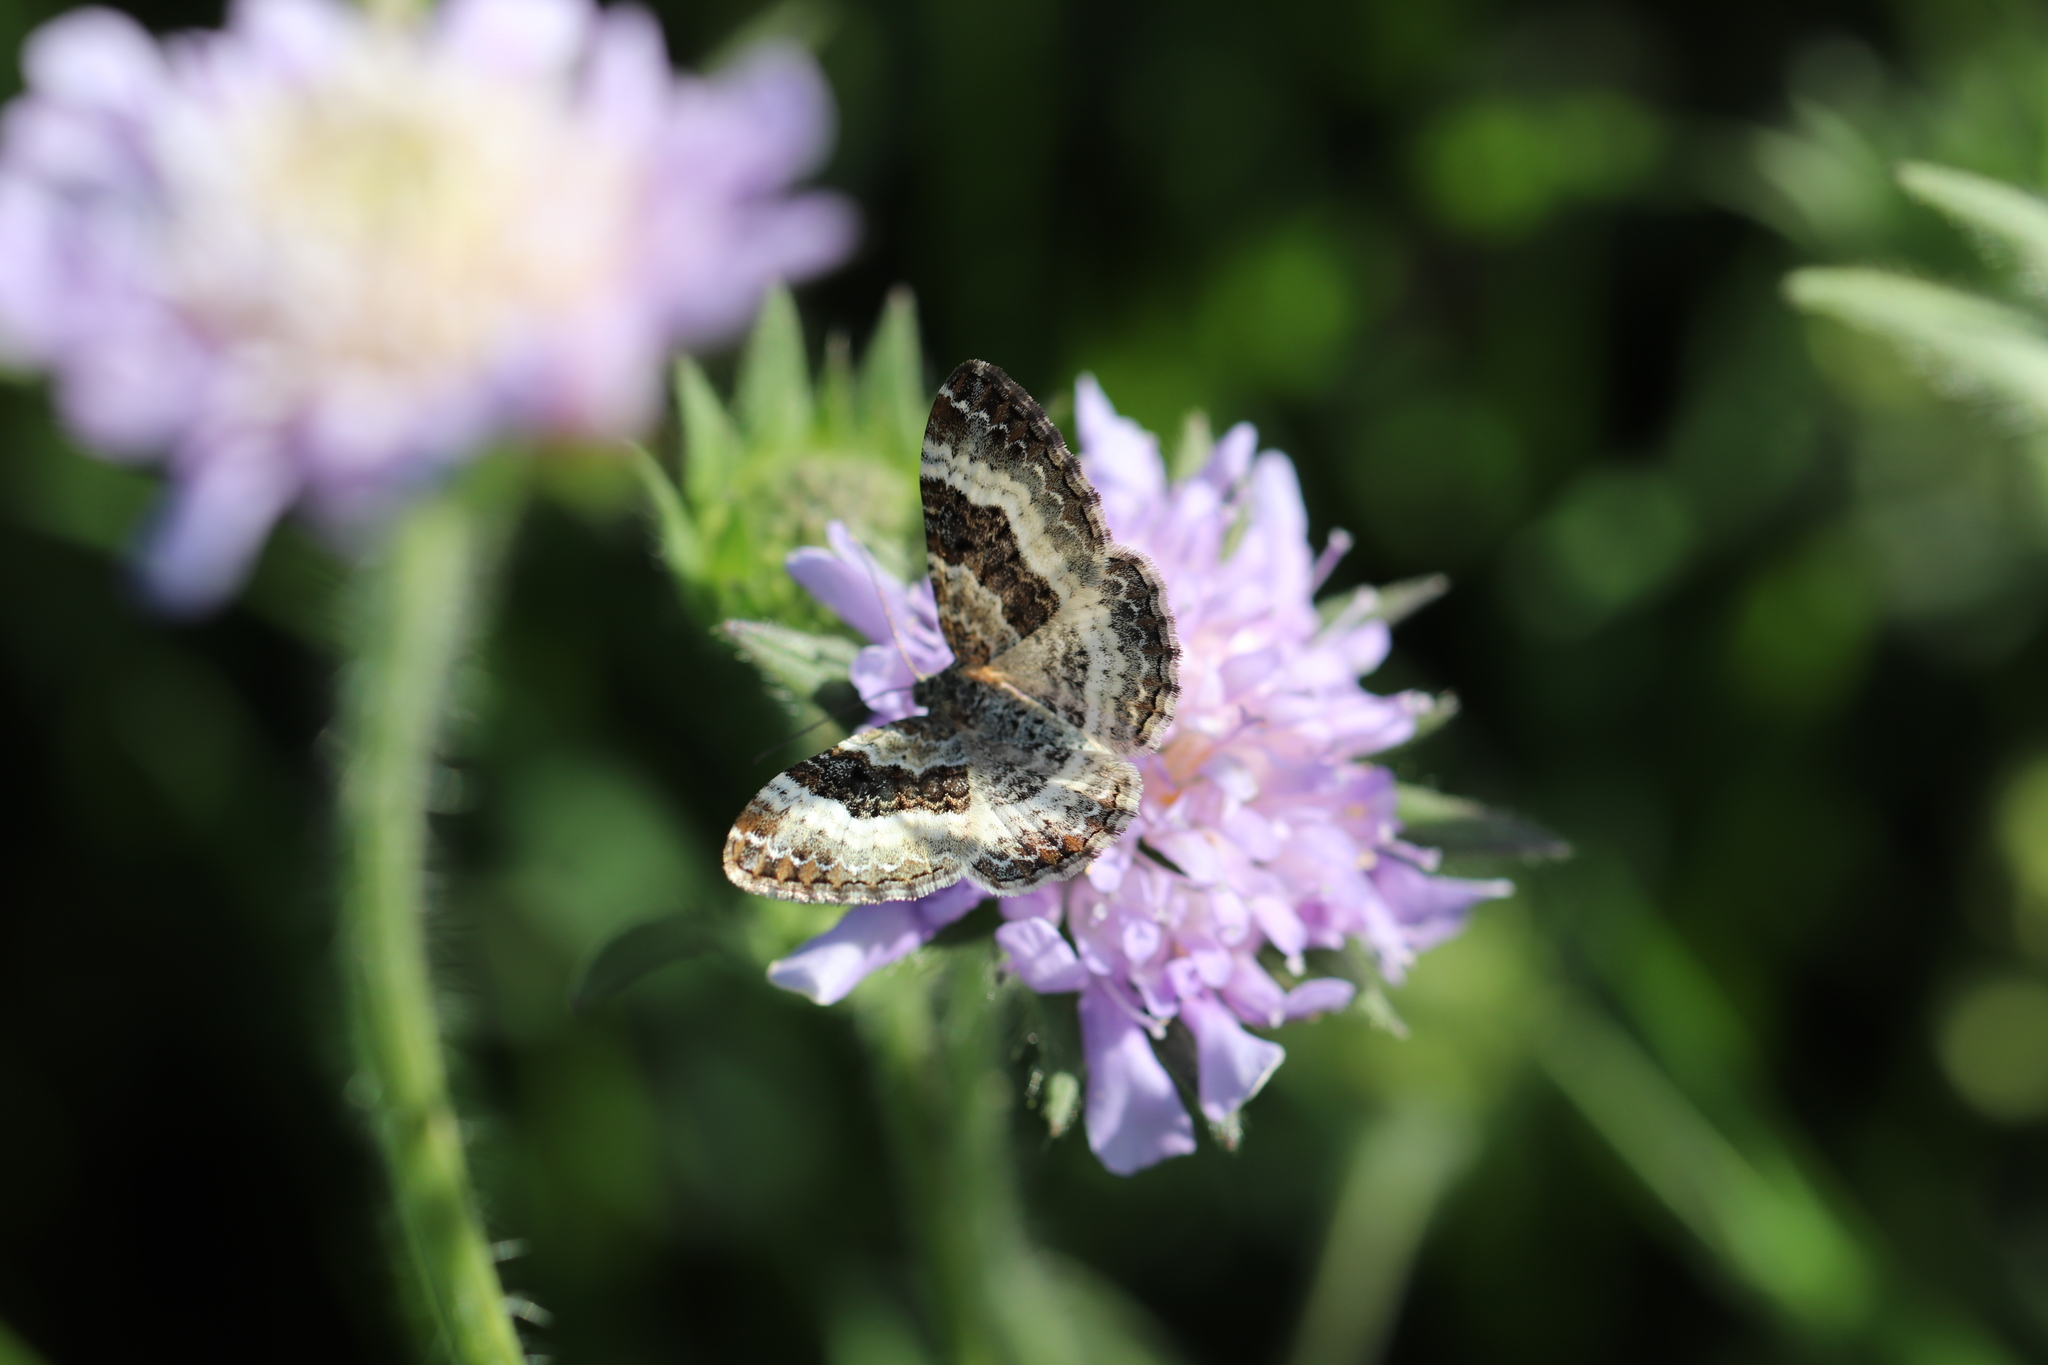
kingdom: Animalia
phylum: Arthropoda
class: Insecta
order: Lepidoptera
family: Geometridae
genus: Epirrhoe
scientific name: Epirrhoe alternata
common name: Common carpet
